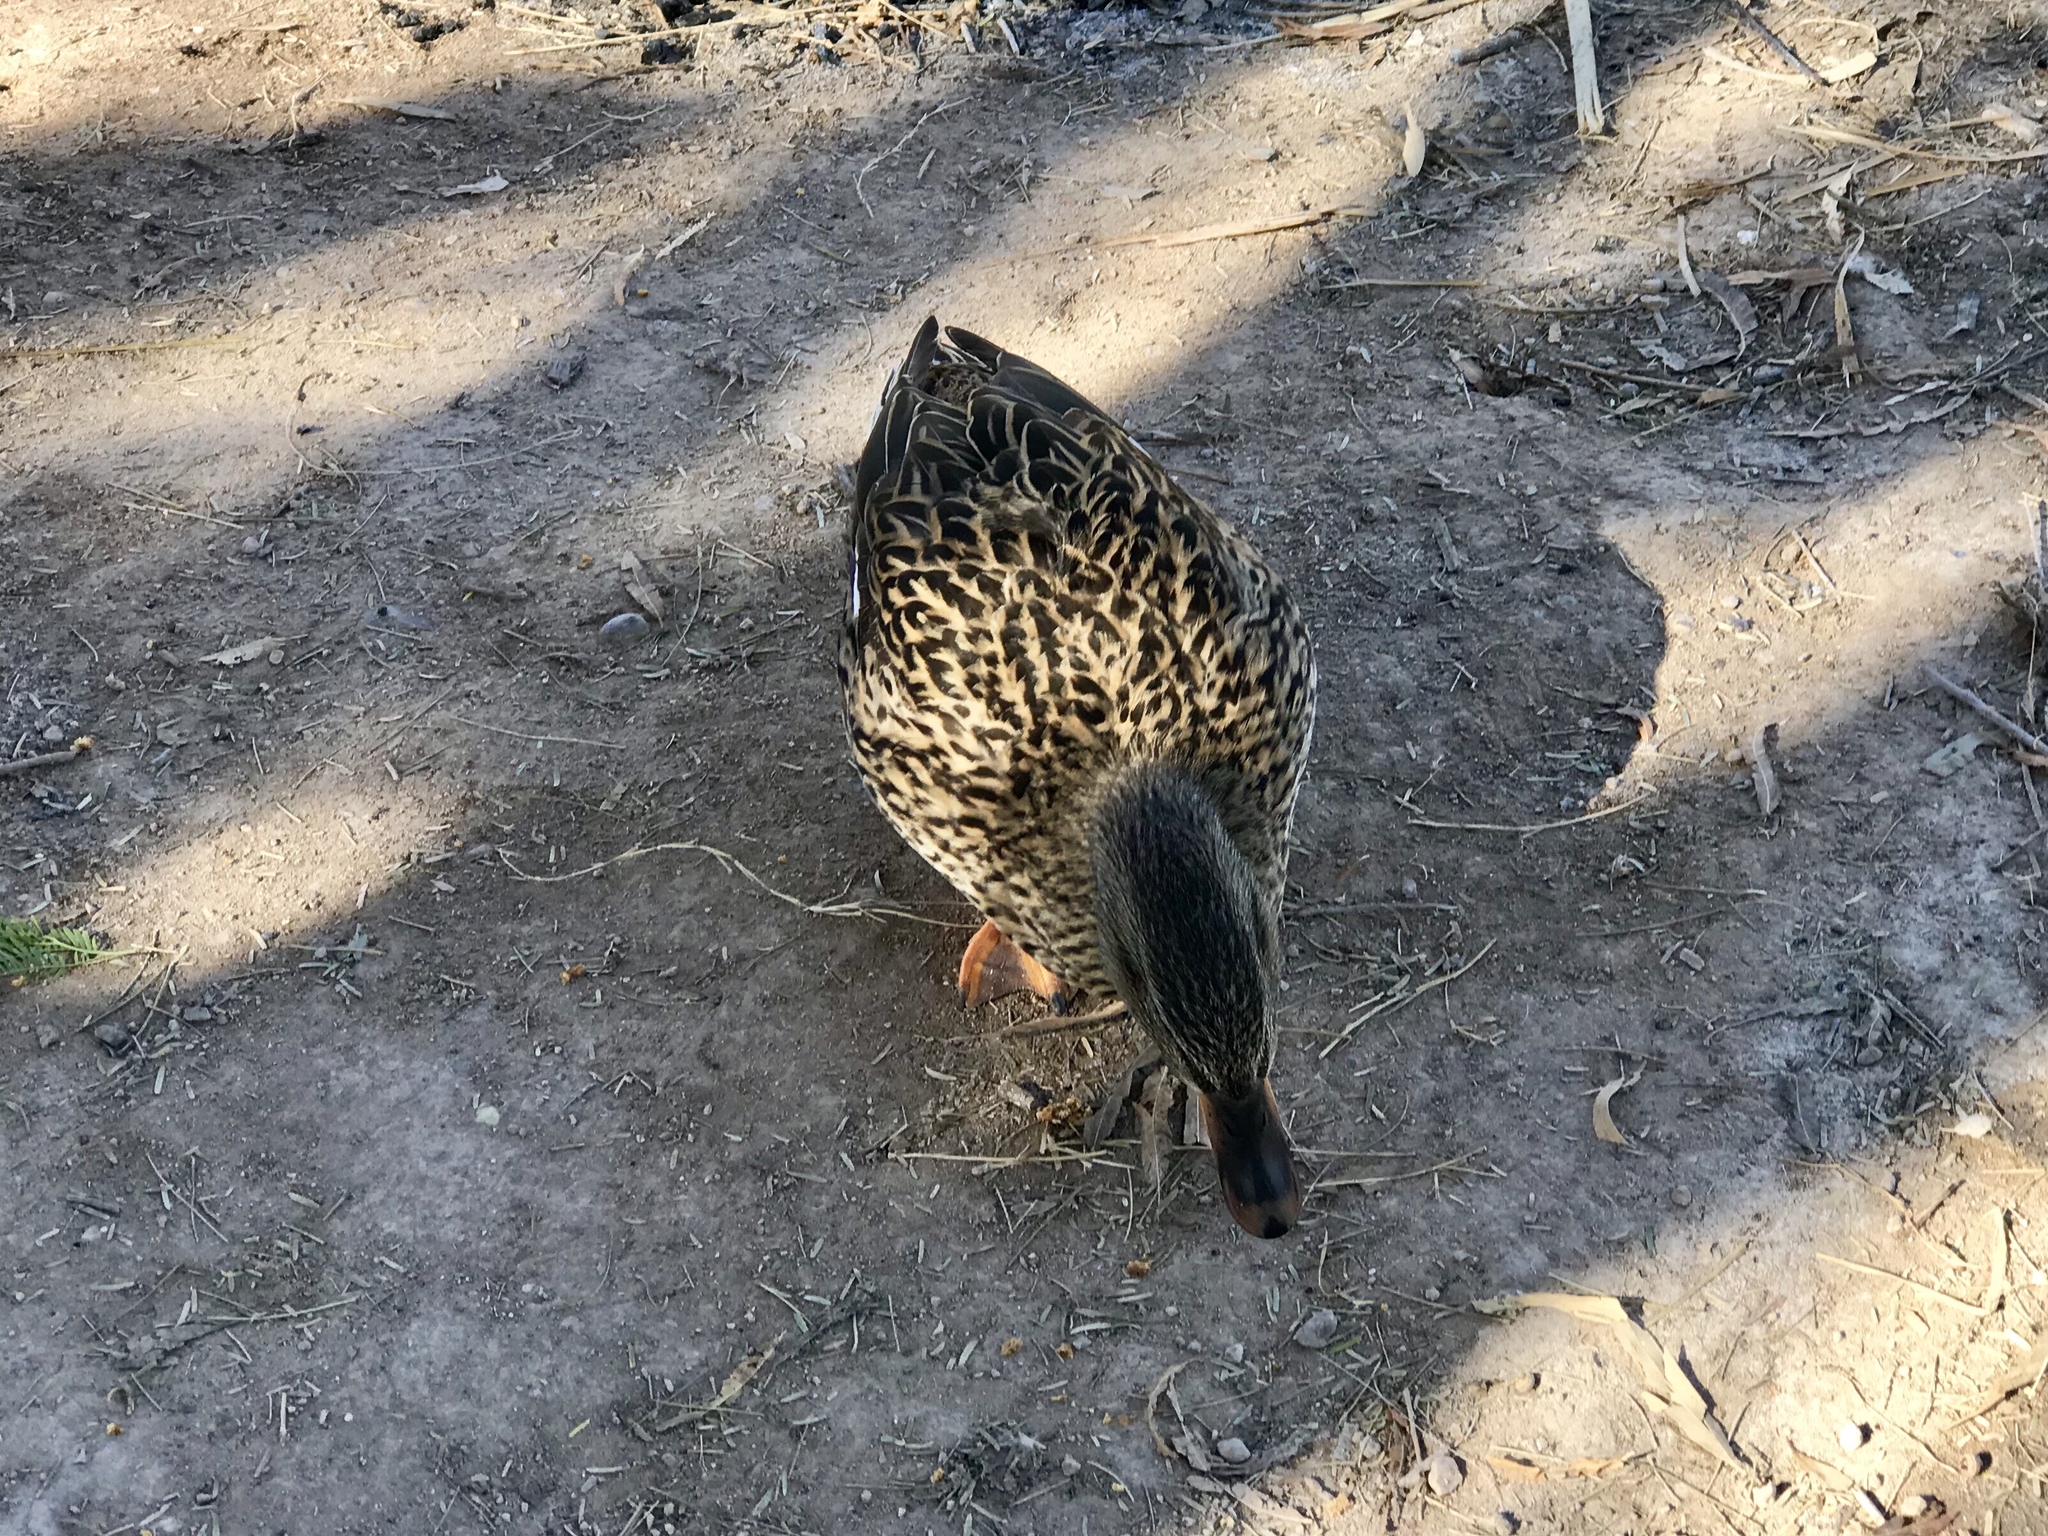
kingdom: Animalia
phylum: Chordata
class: Aves
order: Anseriformes
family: Anatidae
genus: Anas
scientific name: Anas platyrhynchos
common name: Mallard
